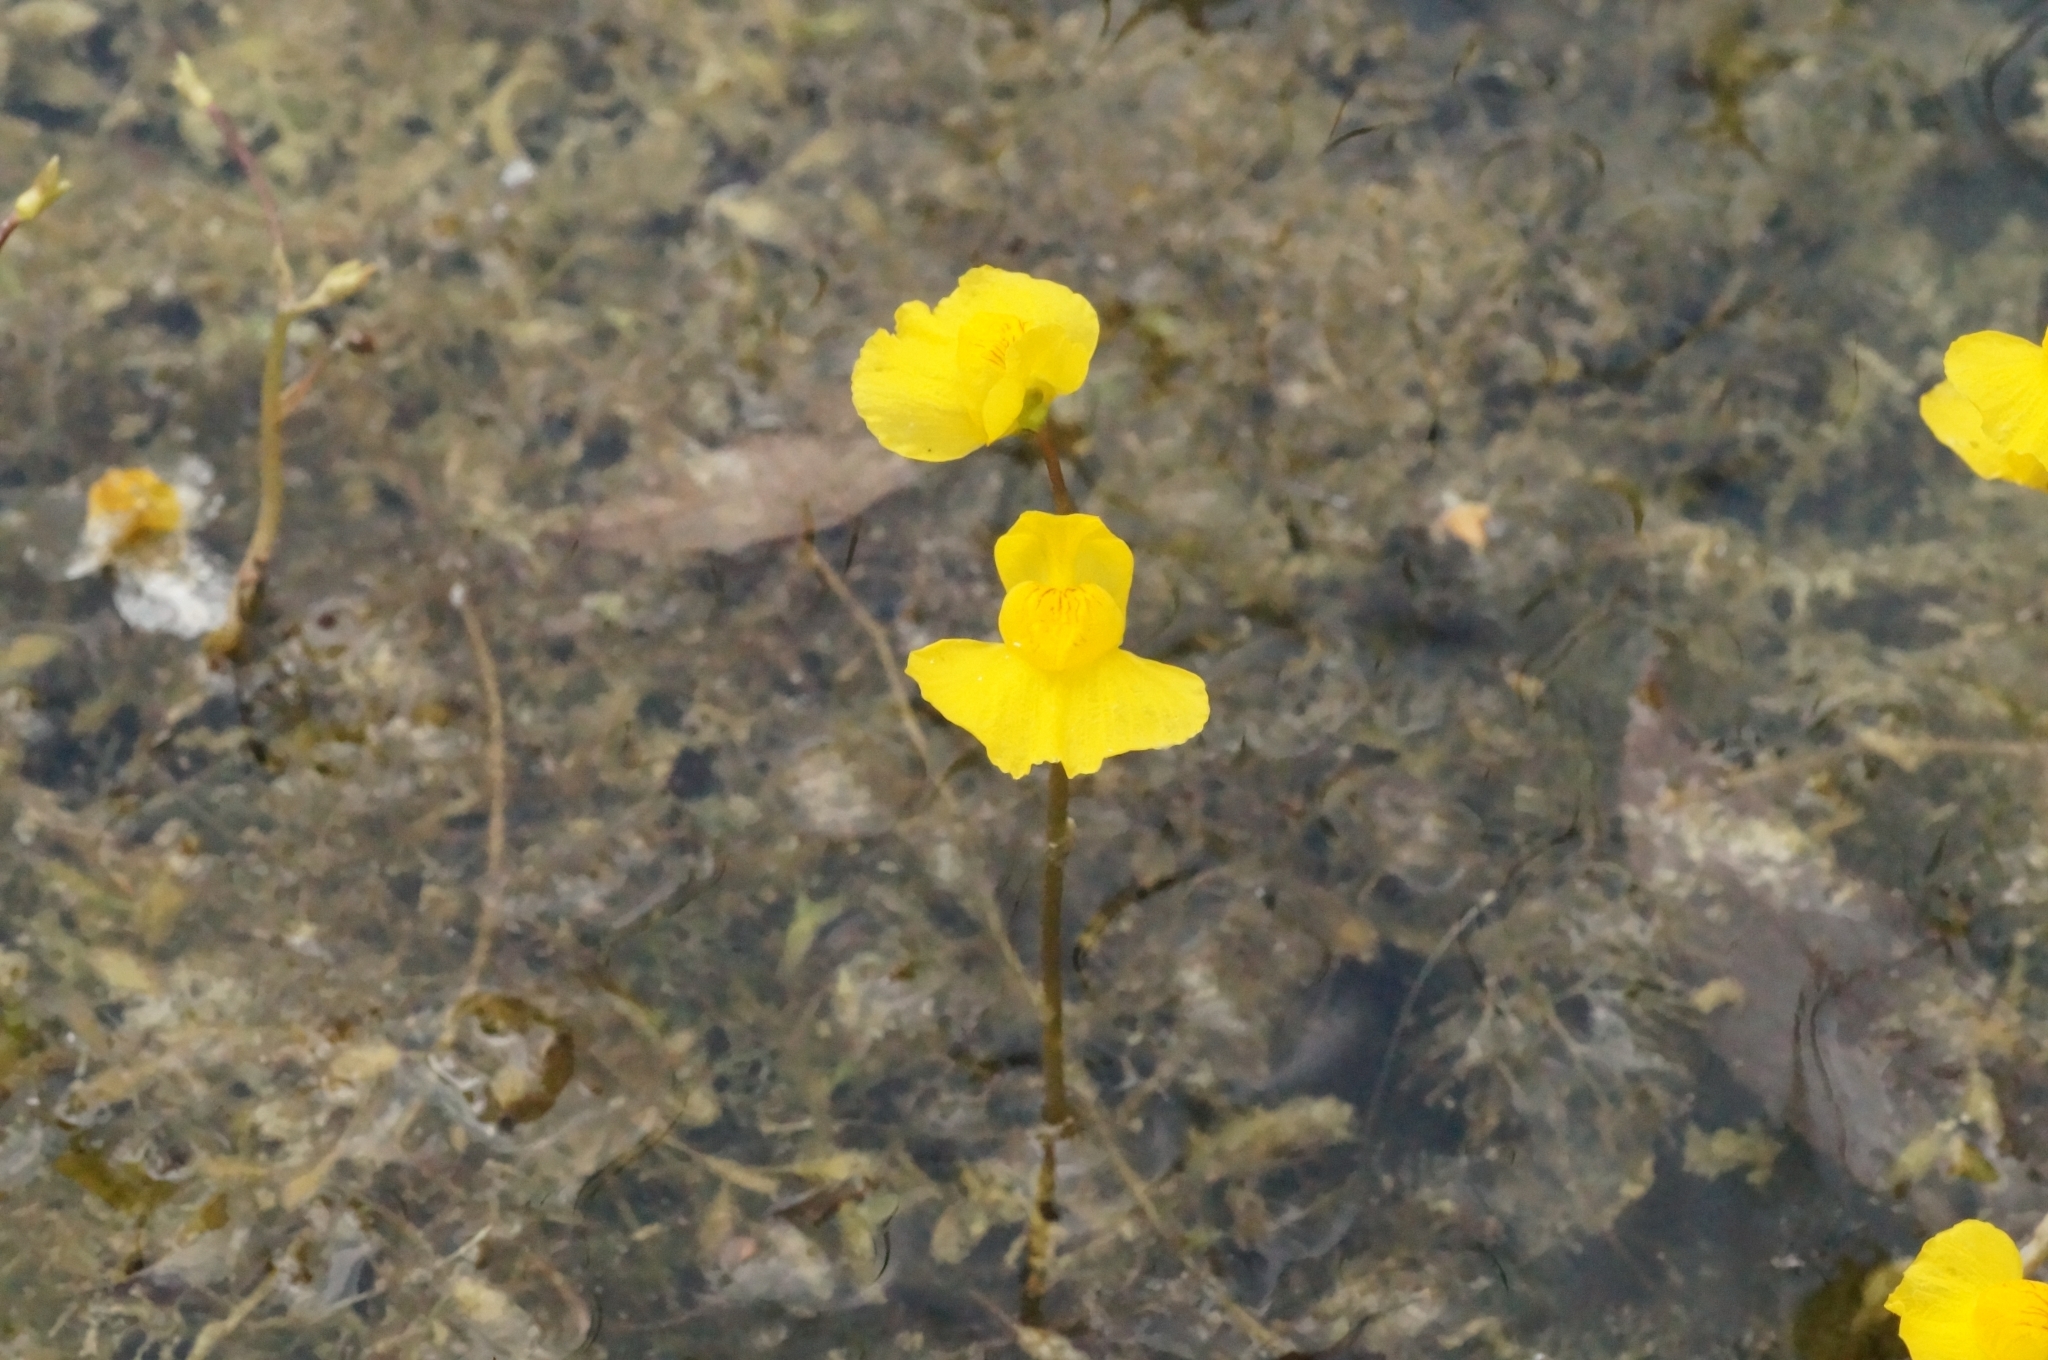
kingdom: Plantae
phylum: Tracheophyta
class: Magnoliopsida
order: Lamiales
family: Lentibulariaceae
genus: Utricularia
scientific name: Utricularia australis
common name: Bladderwort
